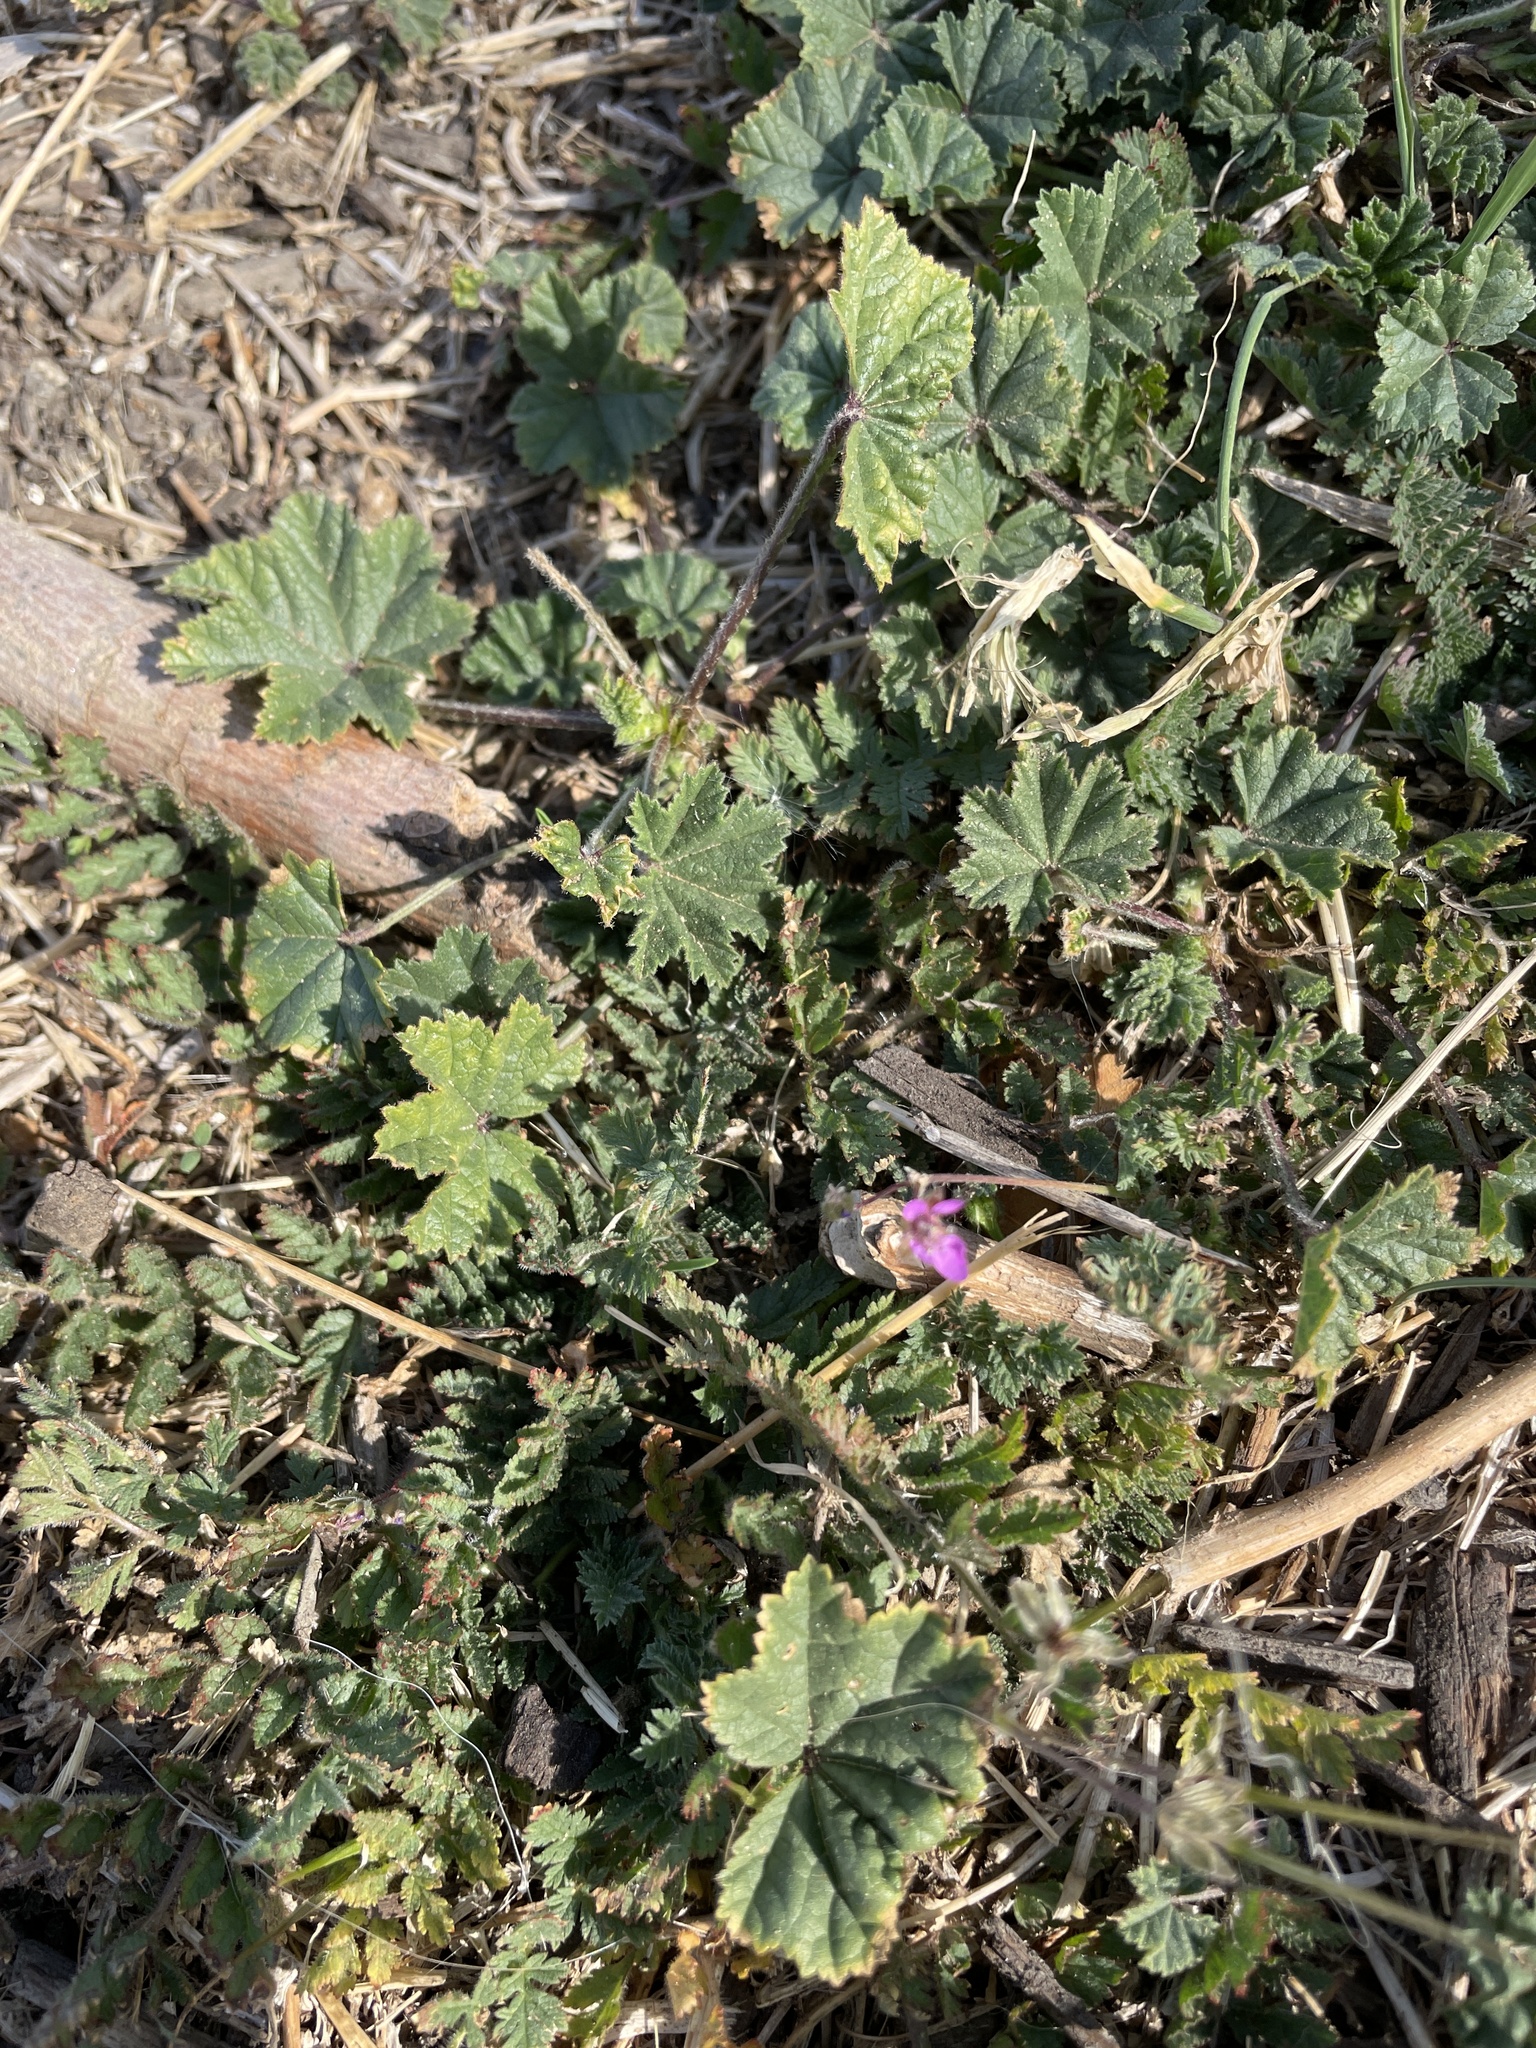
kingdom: Plantae
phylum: Tracheophyta
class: Magnoliopsida
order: Geraniales
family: Geraniaceae
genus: Erodium
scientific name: Erodium cicutarium
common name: Common stork's-bill
